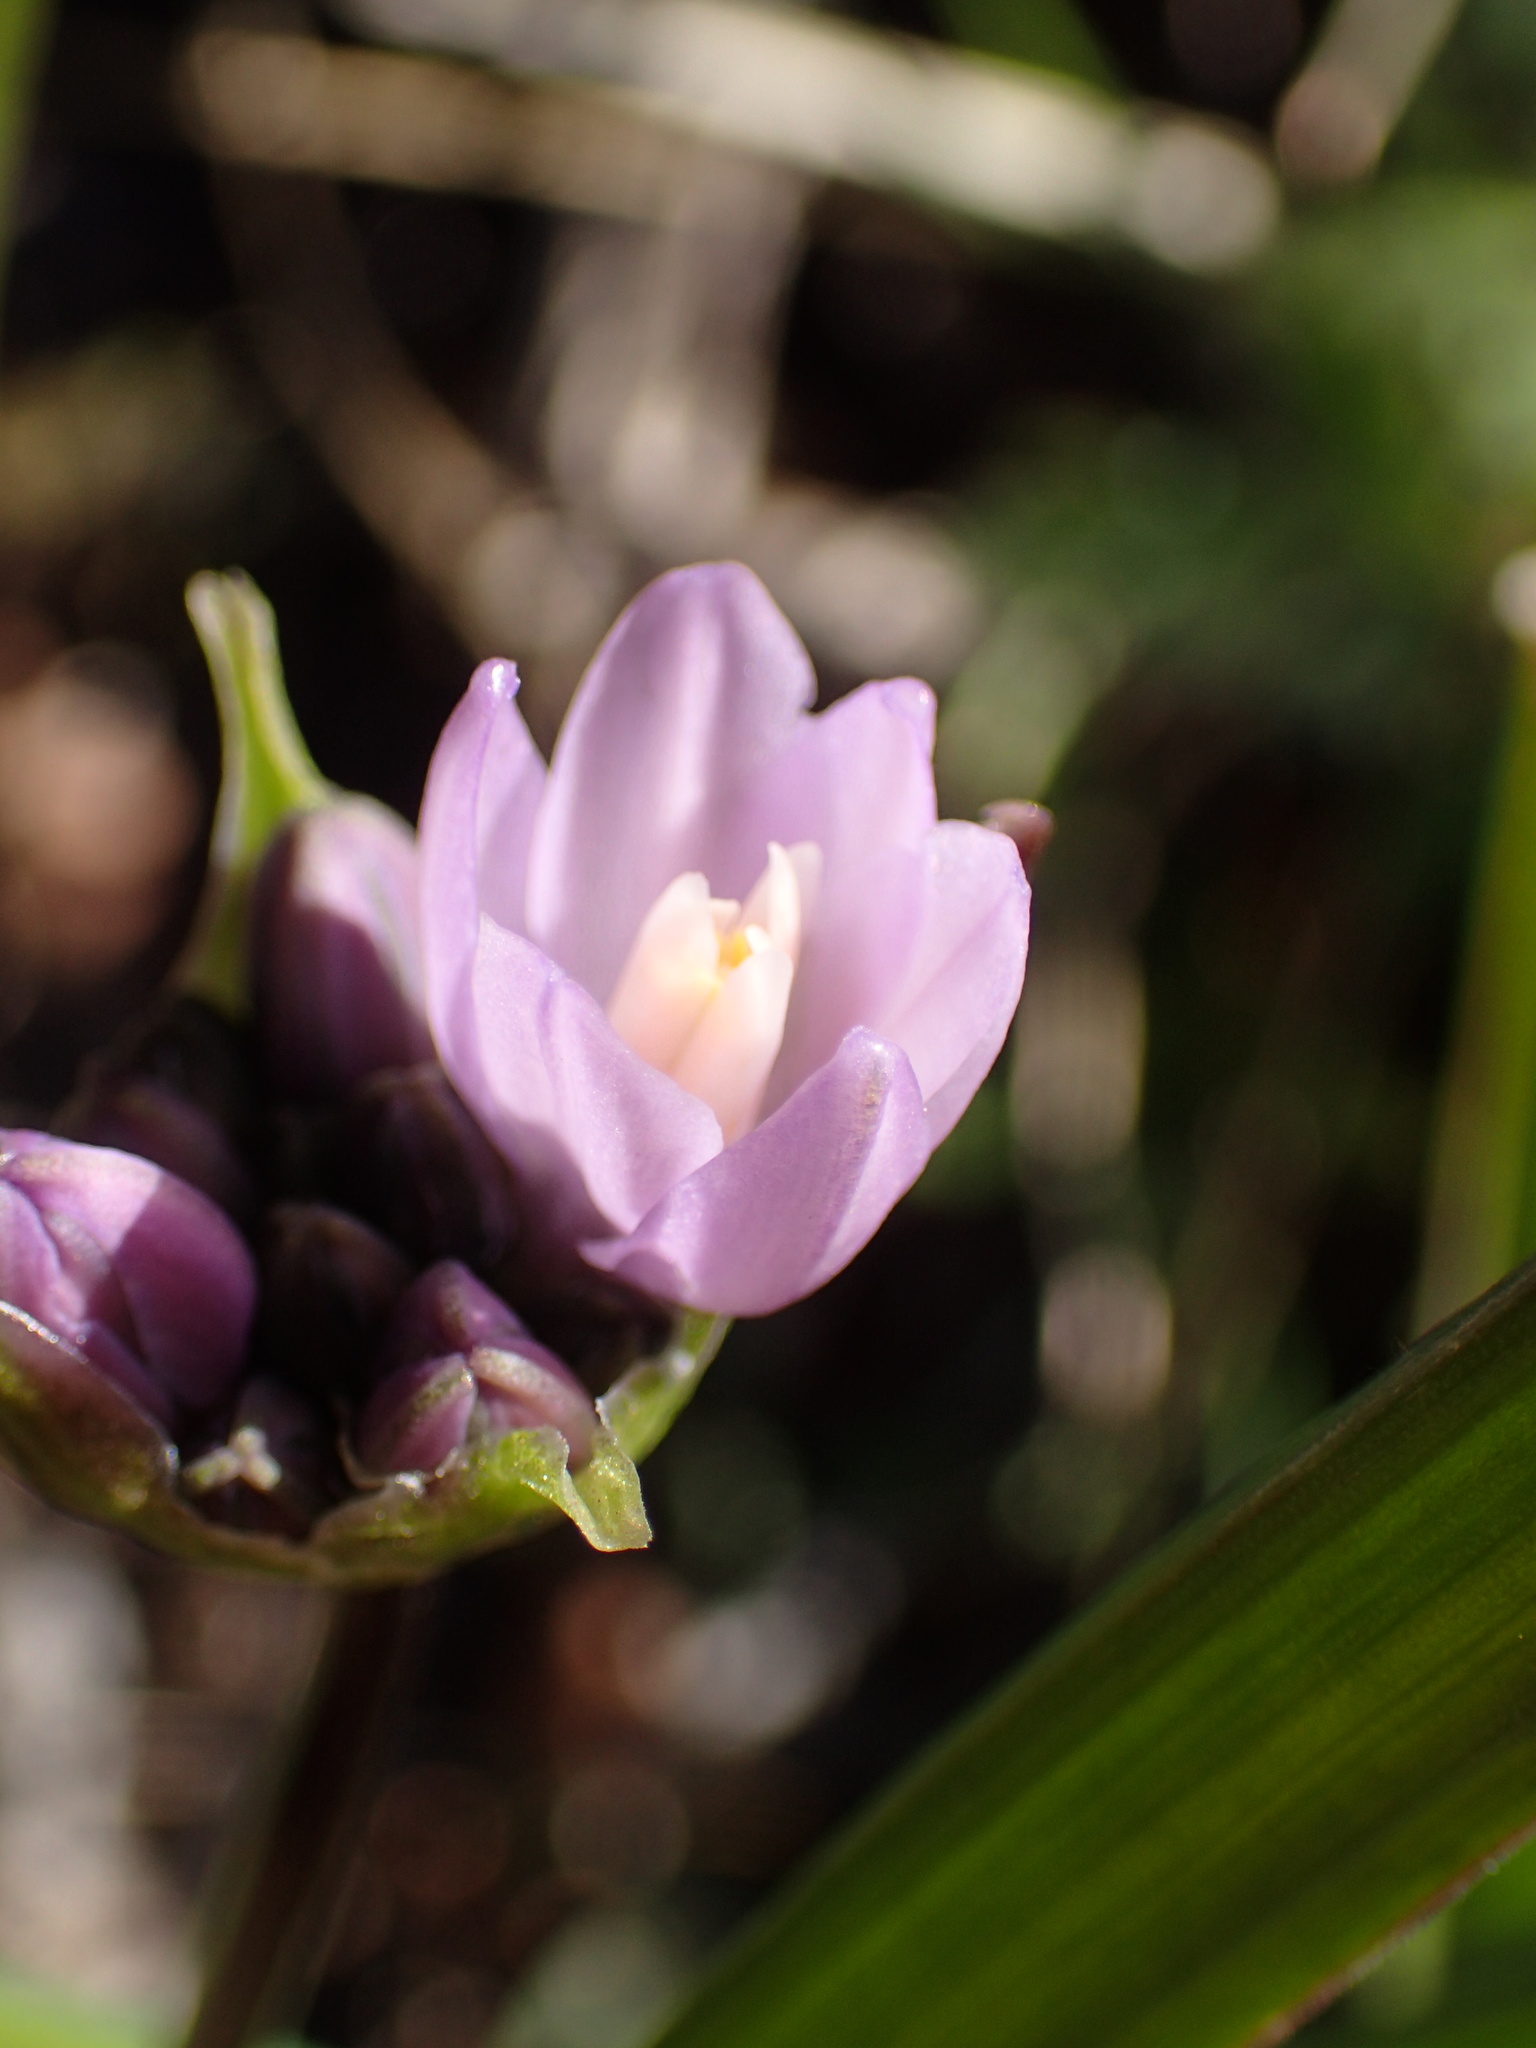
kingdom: Plantae
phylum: Tracheophyta
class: Liliopsida
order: Asparagales
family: Asparagaceae
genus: Dipterostemon
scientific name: Dipterostemon capitatus
